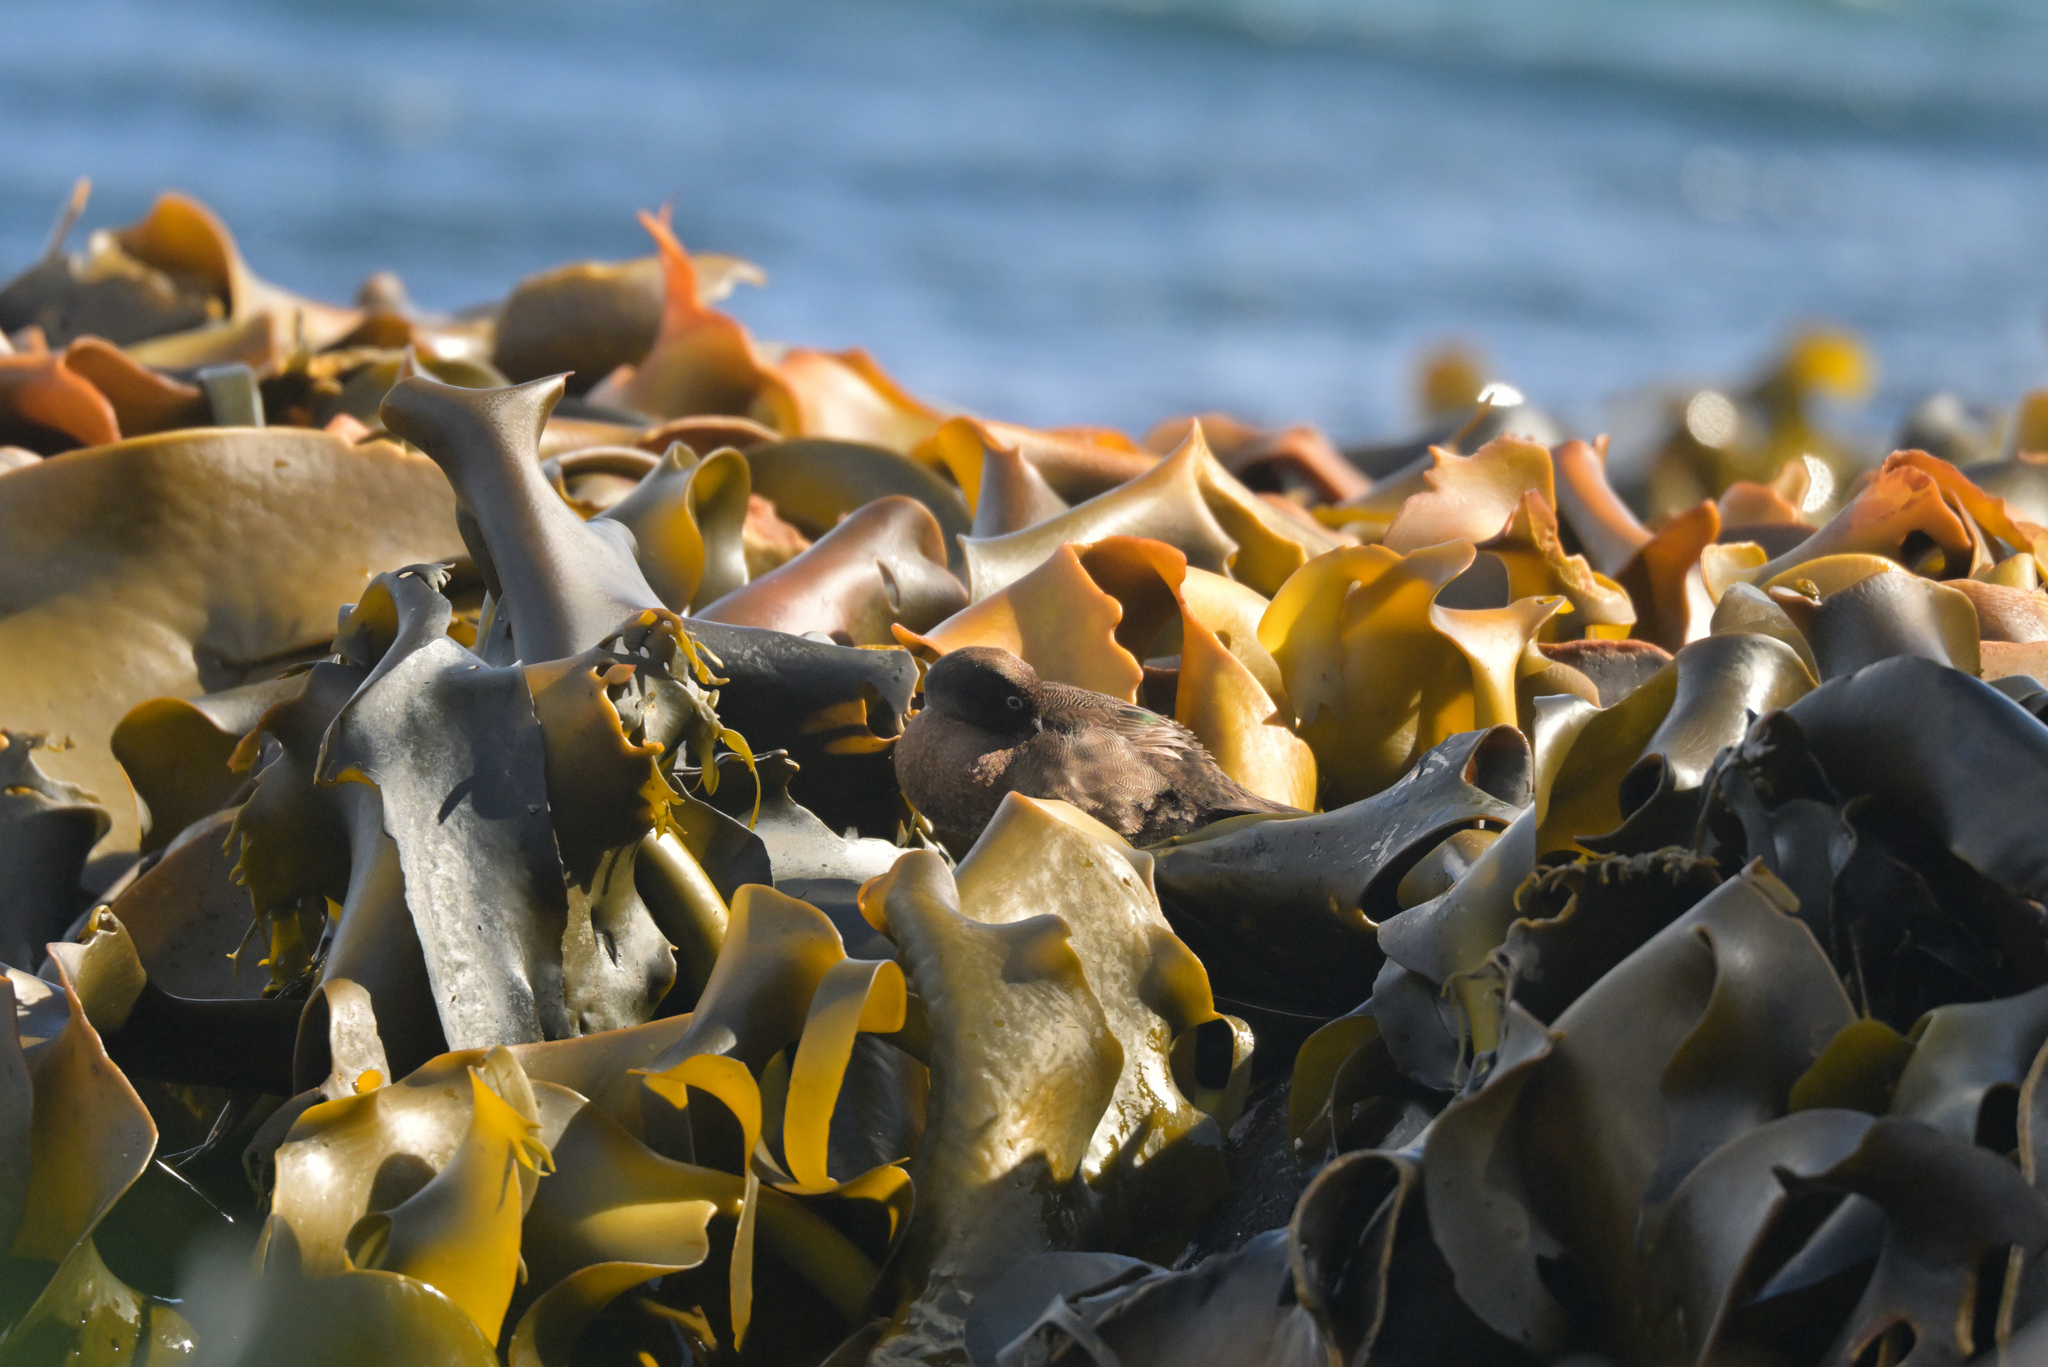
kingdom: Animalia
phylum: Chordata
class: Aves
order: Anseriformes
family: Anatidae
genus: Anas
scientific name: Anas aucklandica
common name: Auckland teal
